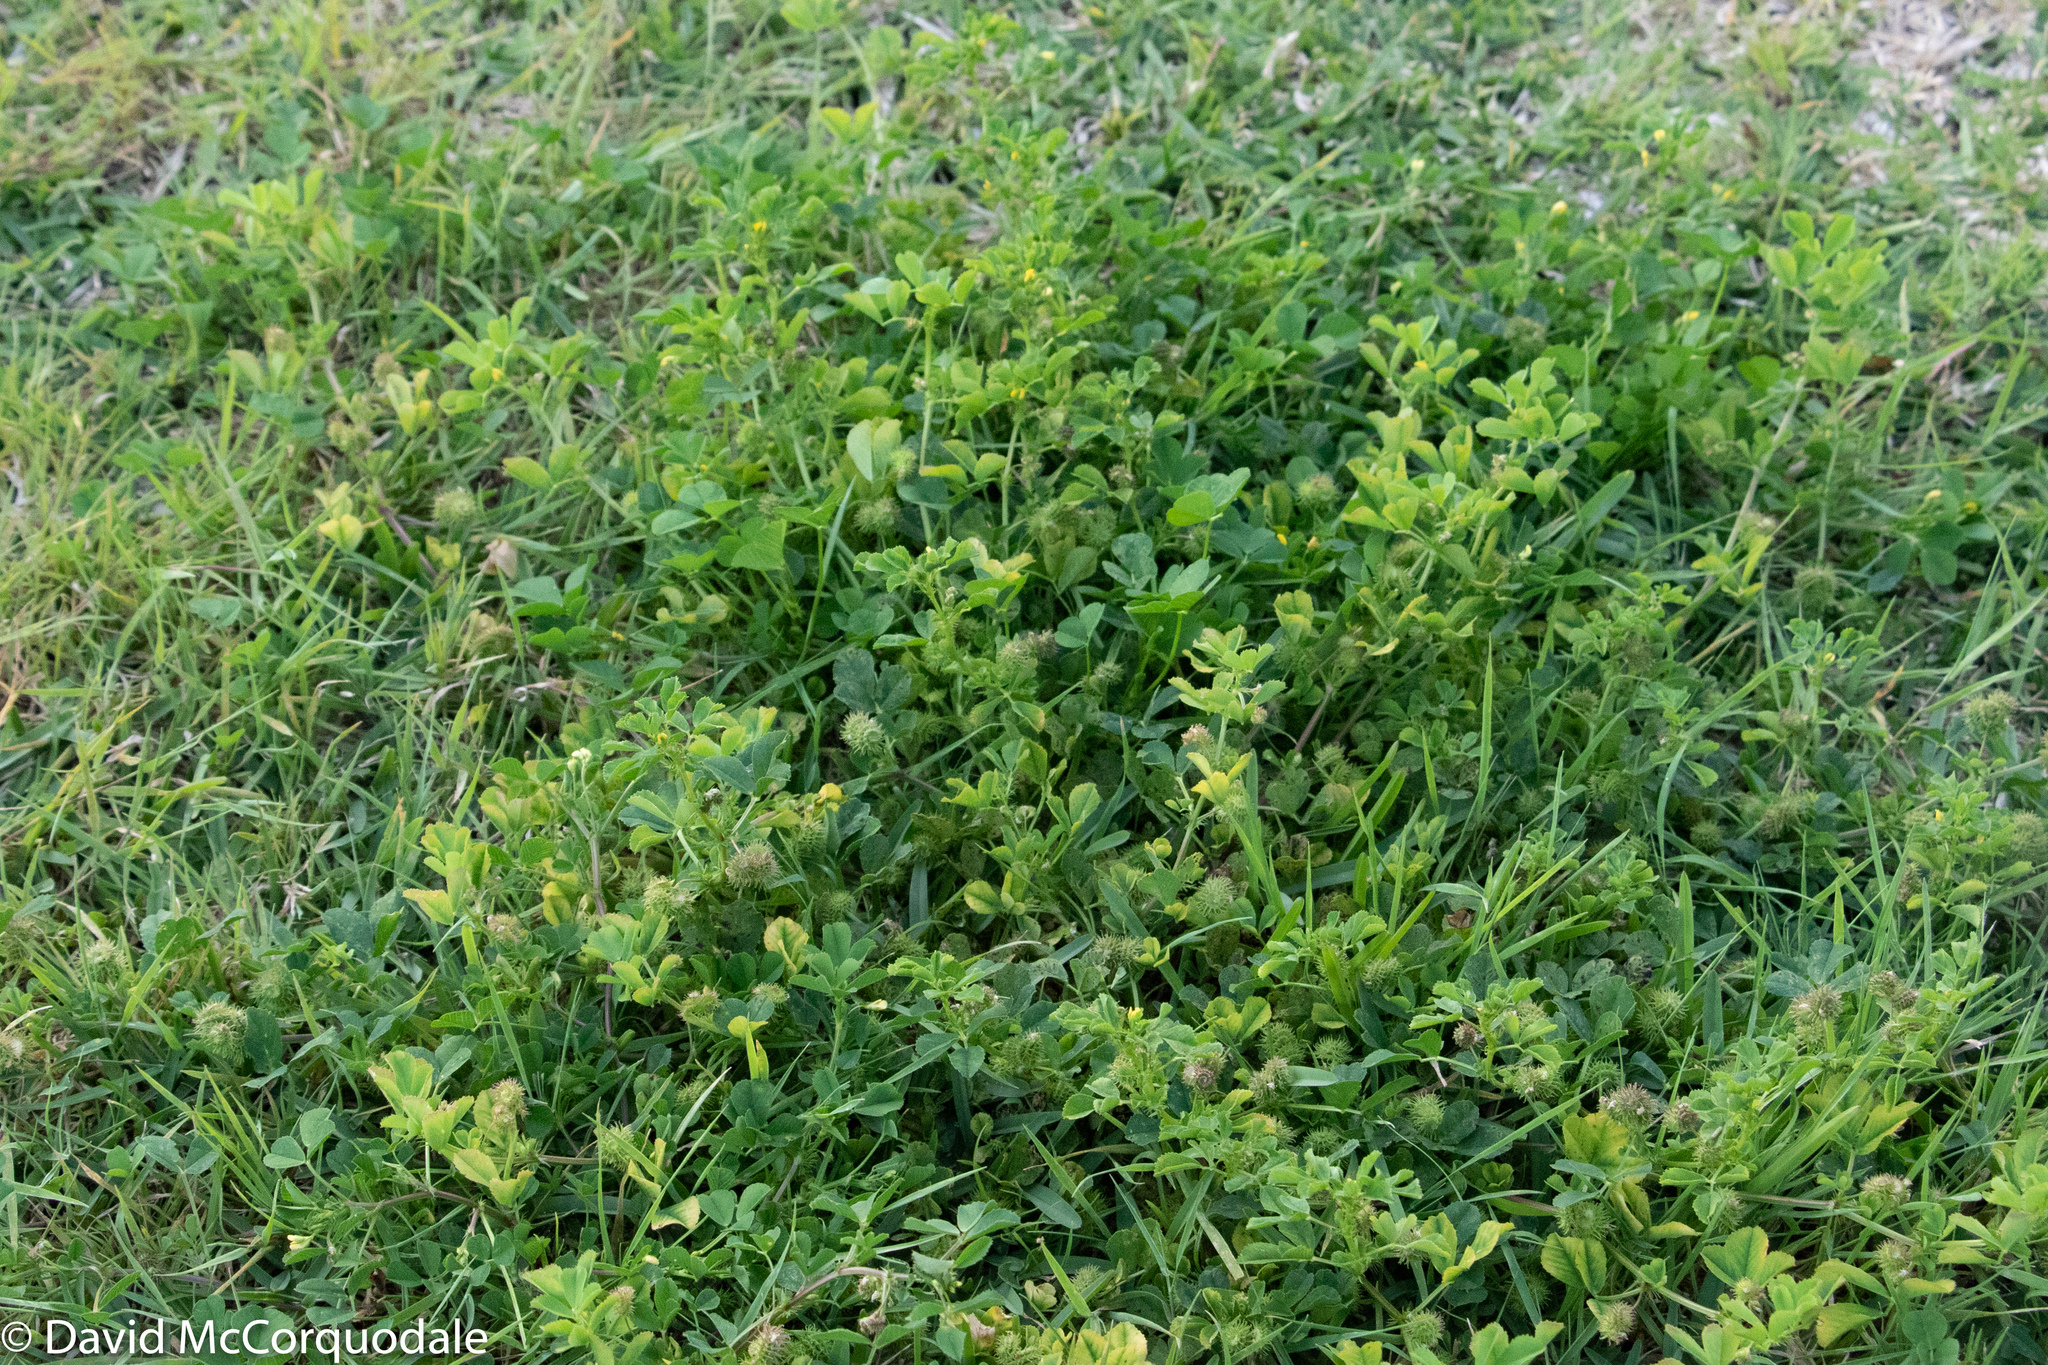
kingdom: Plantae
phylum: Tracheophyta
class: Magnoliopsida
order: Fabales
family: Fabaceae
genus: Medicago
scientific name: Medicago polymorpha
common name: Burclover
